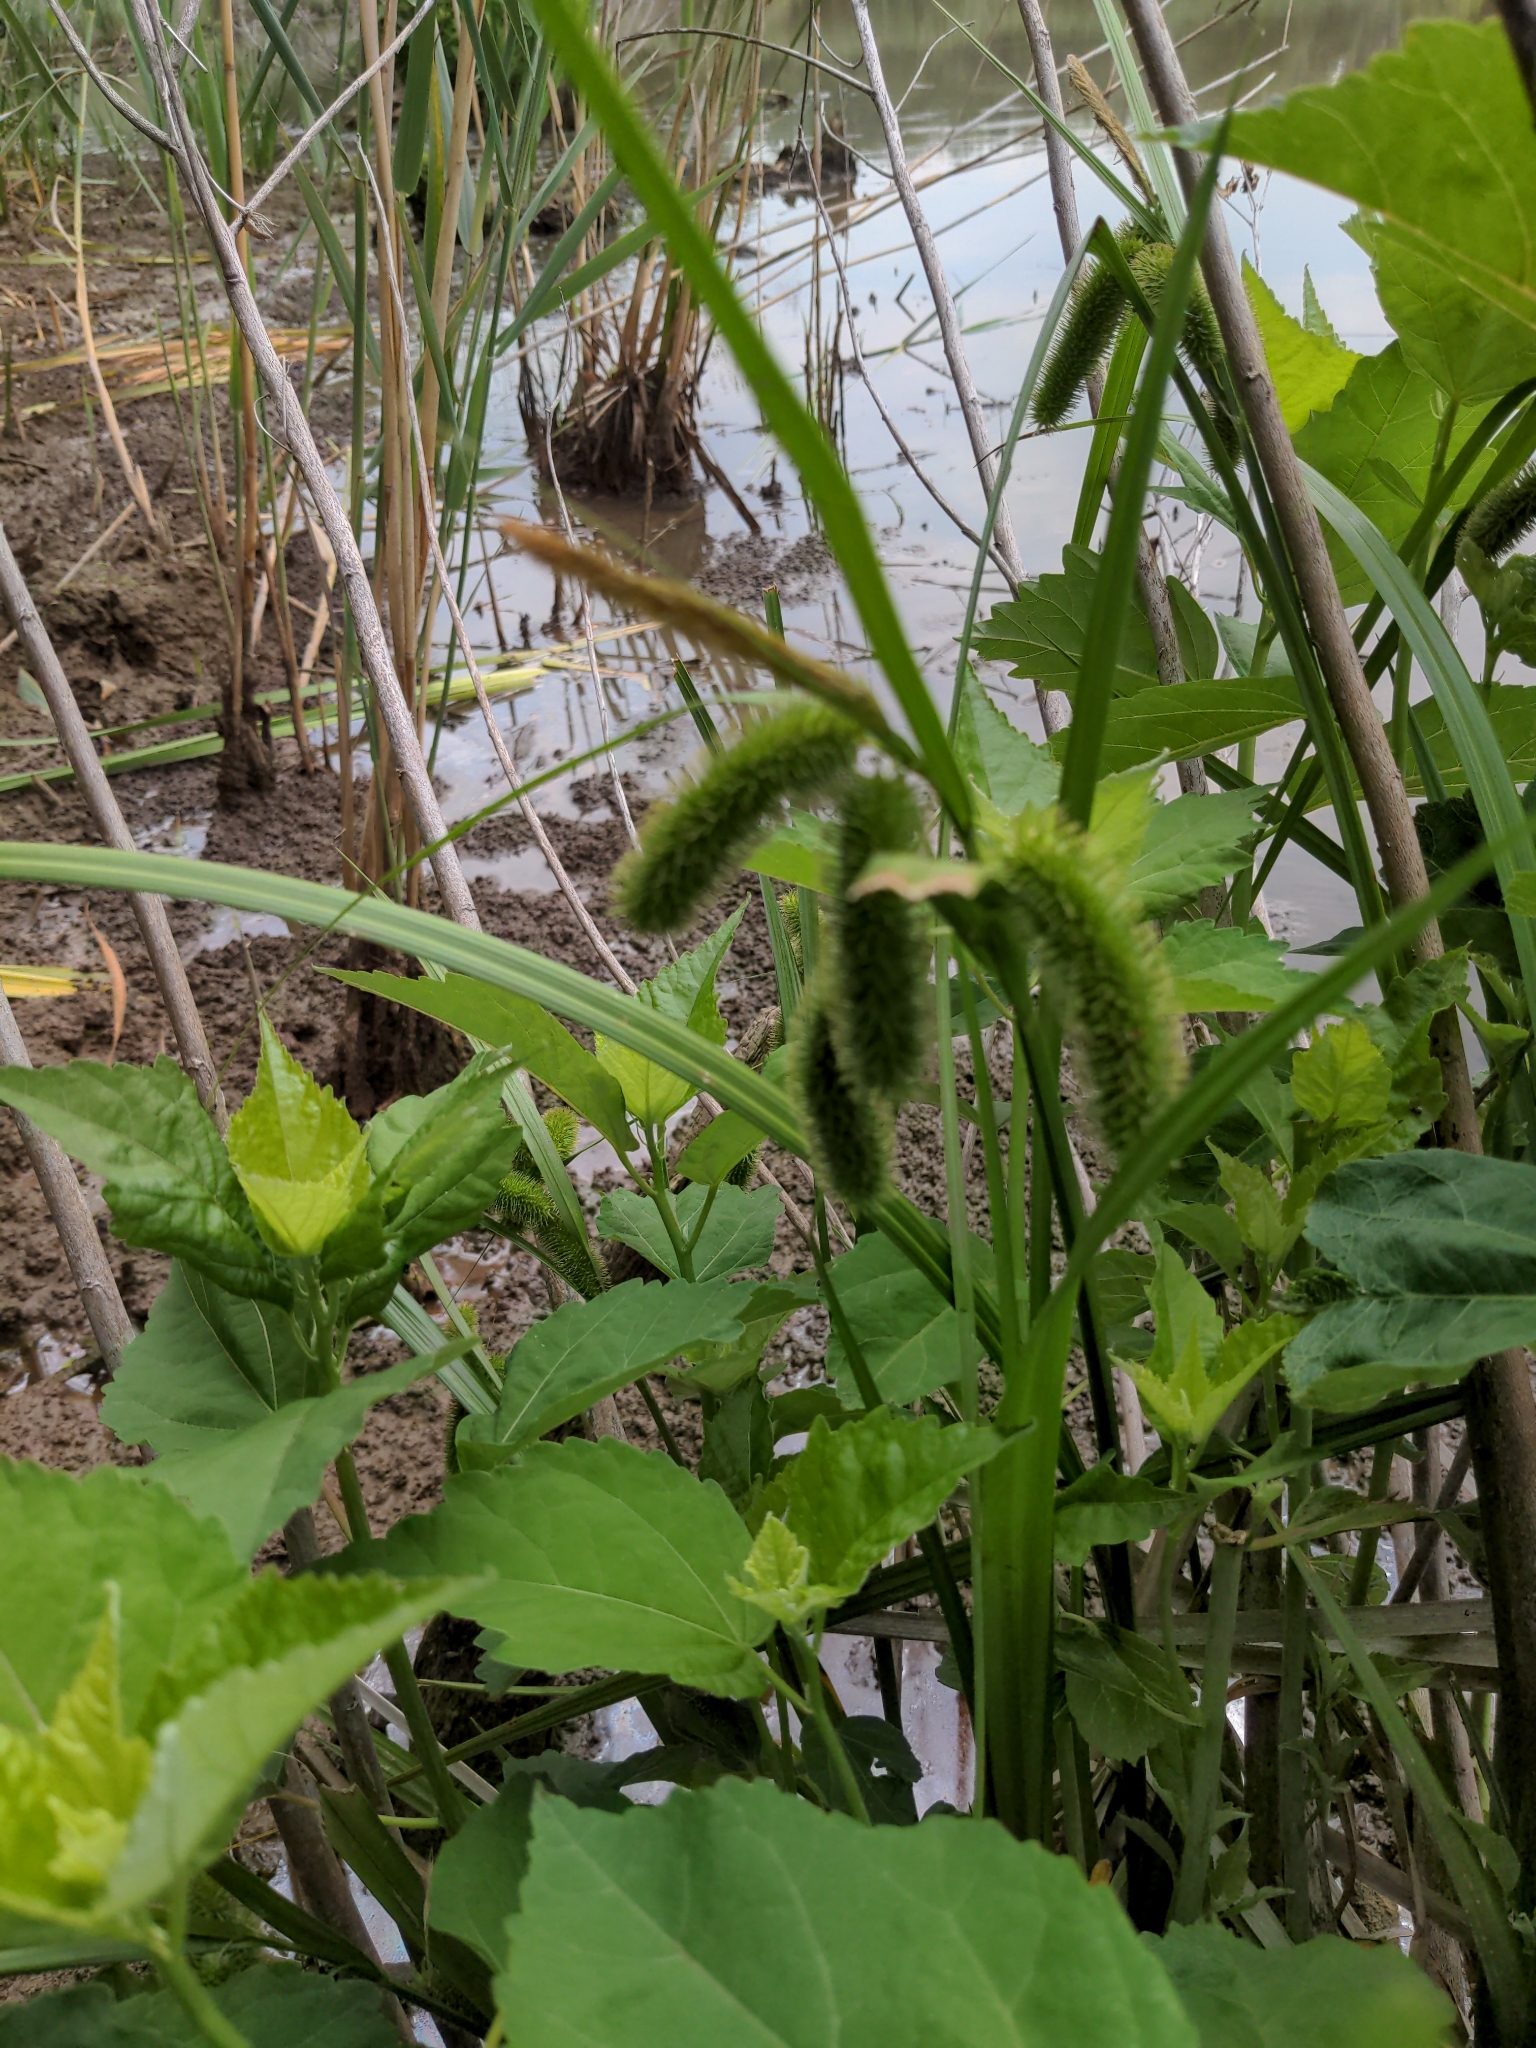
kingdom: Plantae
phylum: Tracheophyta
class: Liliopsida
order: Poales
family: Cyperaceae
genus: Carex
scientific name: Carex comosa
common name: Bristly sedge
